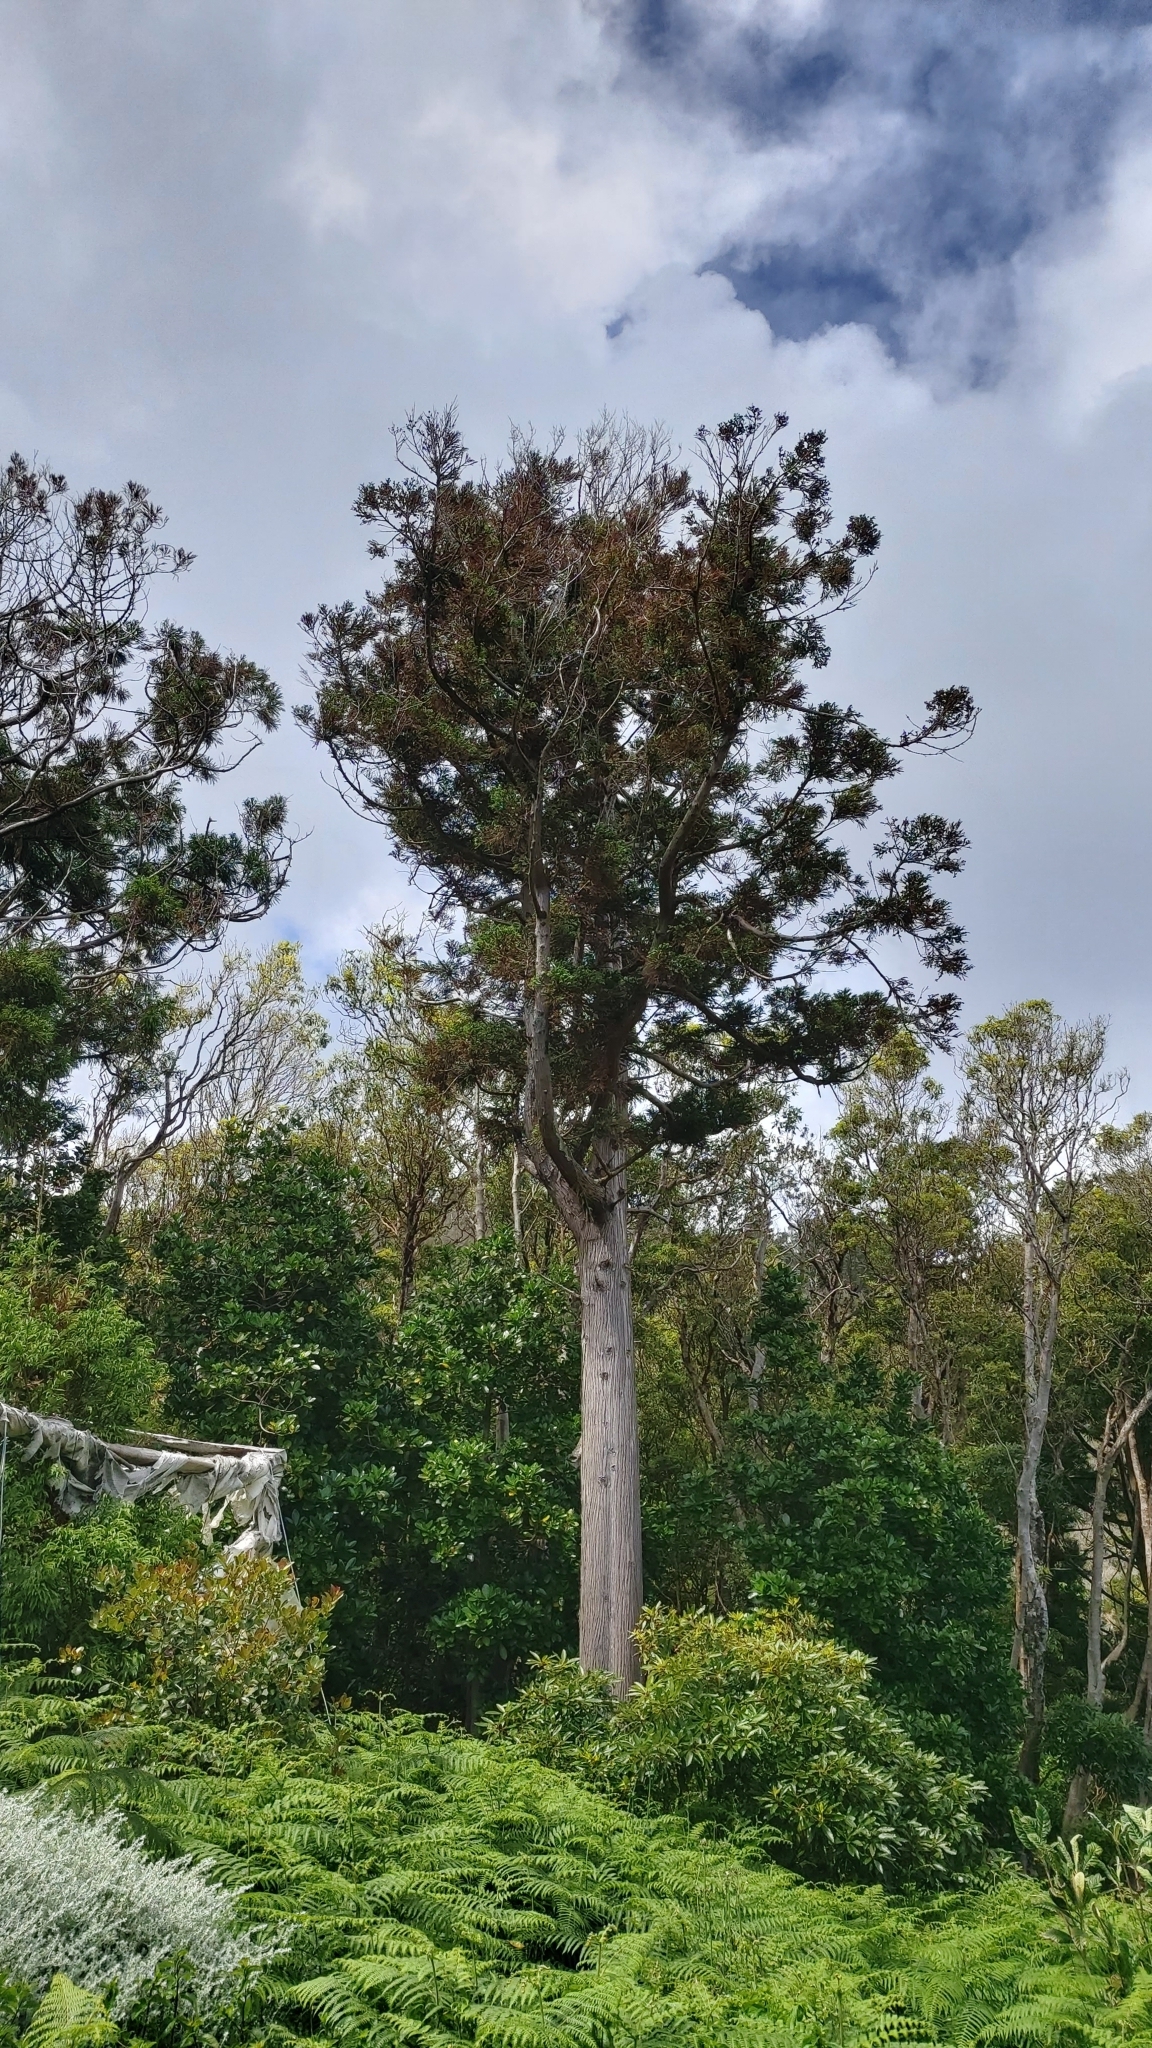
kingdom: Plantae
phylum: Tracheophyta
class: Pinopsida
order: Pinales
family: Cupressaceae
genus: Cryptomeria
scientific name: Cryptomeria japonica
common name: Japanese cedar
